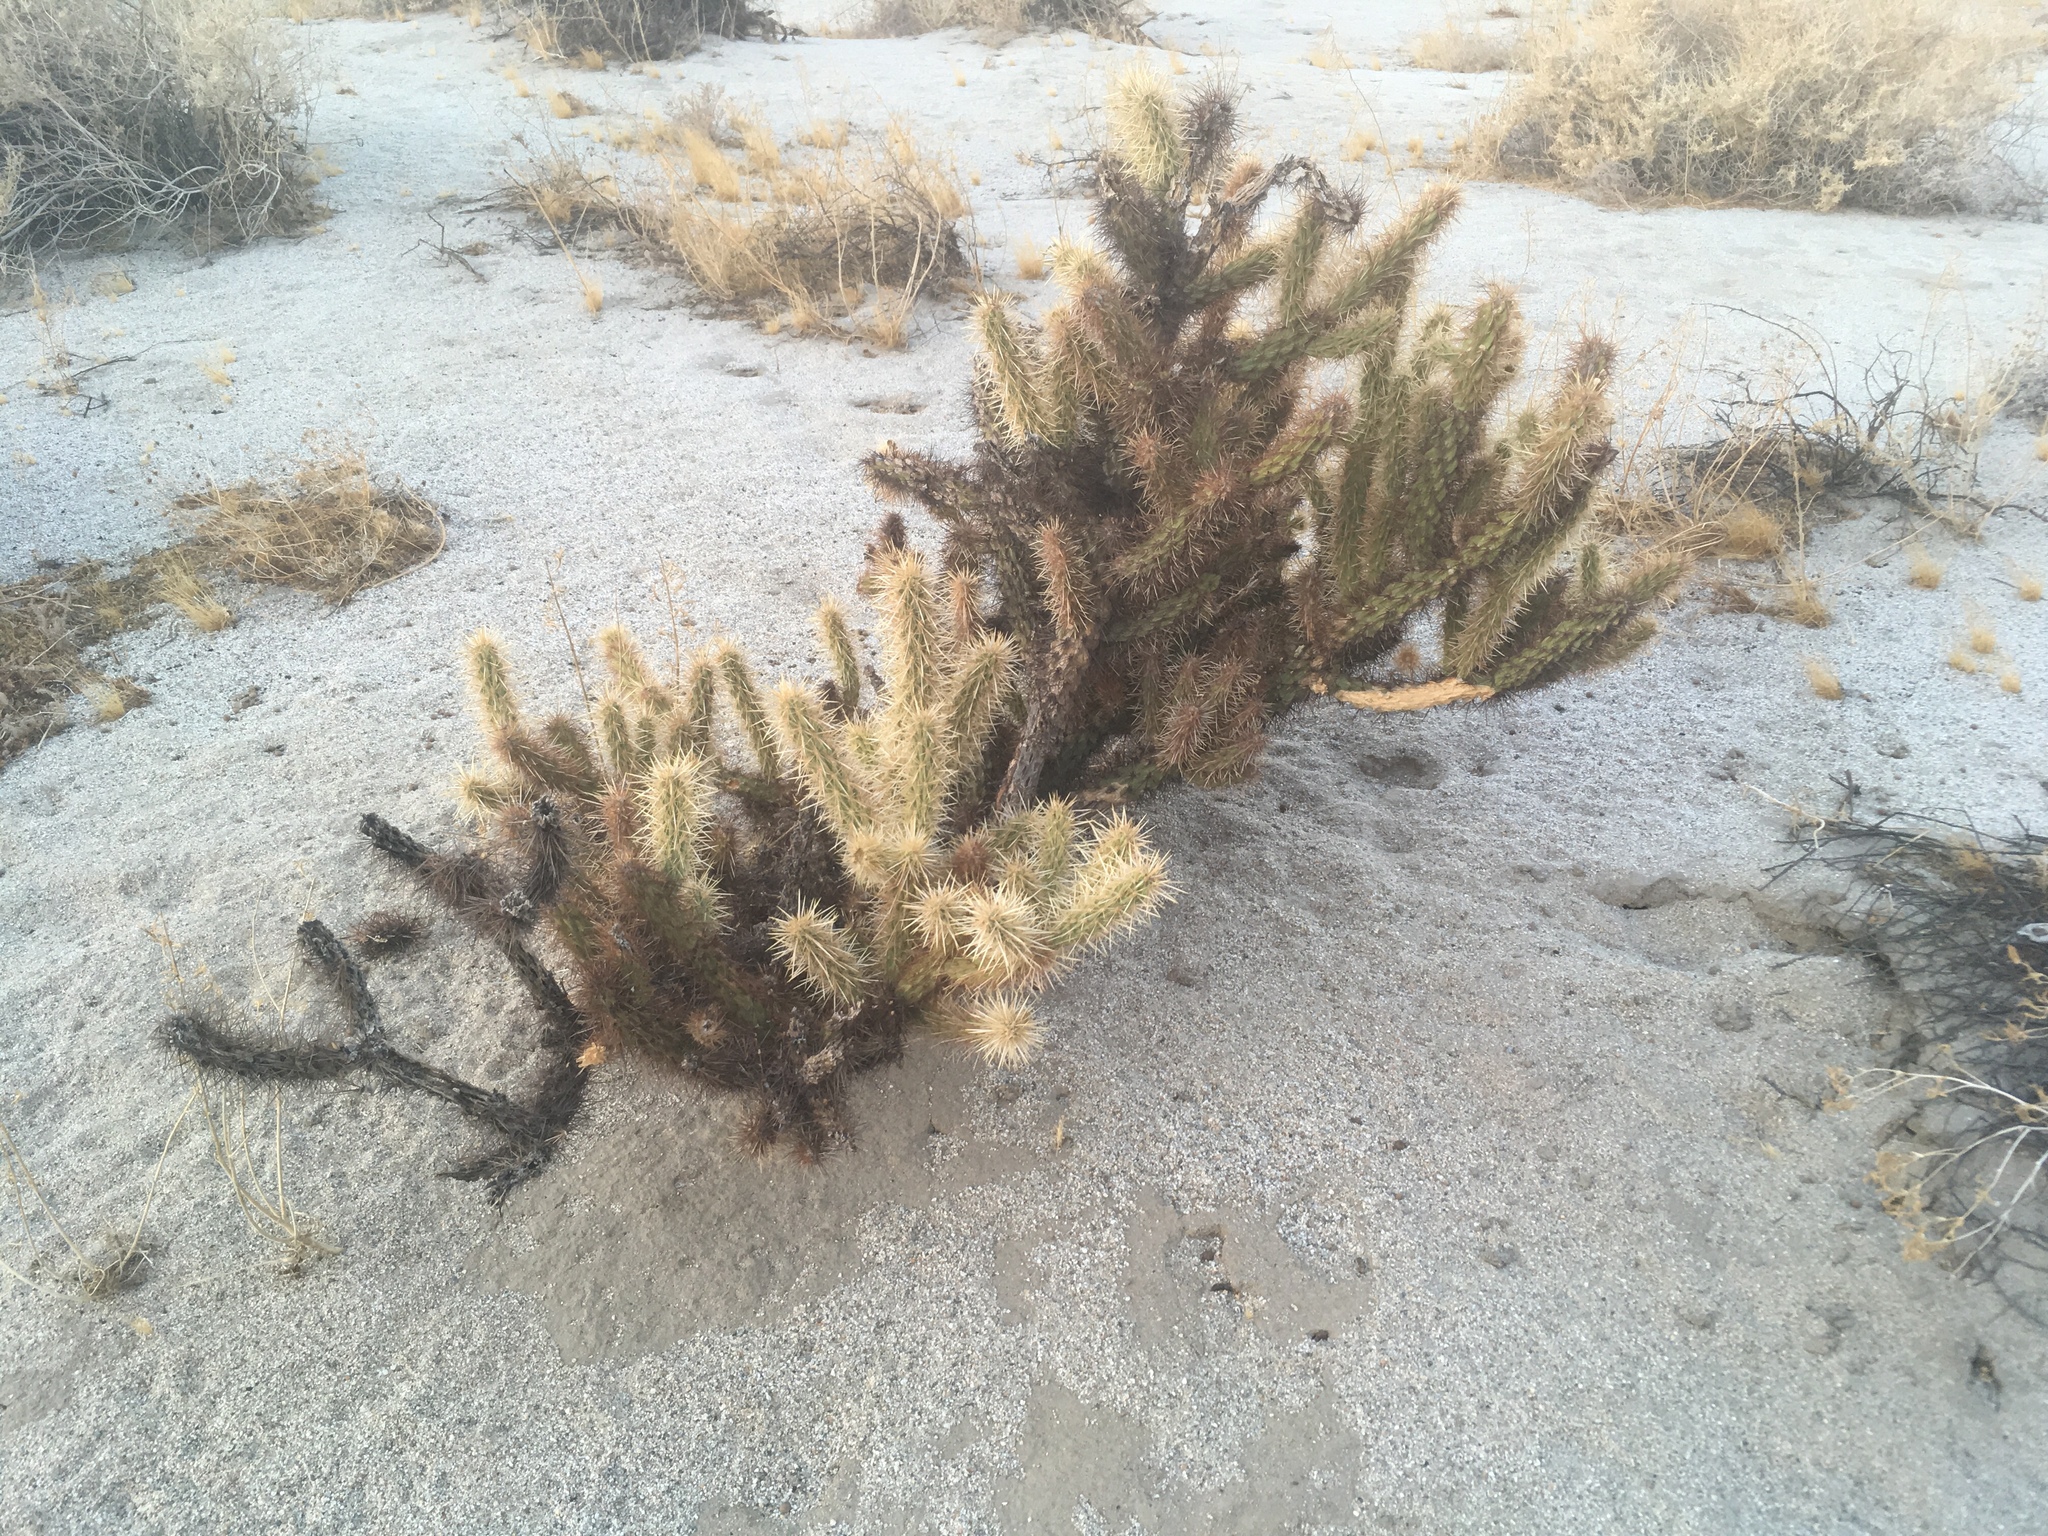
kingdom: Plantae
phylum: Tracheophyta
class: Magnoliopsida
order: Caryophyllales
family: Cactaceae
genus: Cylindropuntia
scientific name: Cylindropuntia ganderi
